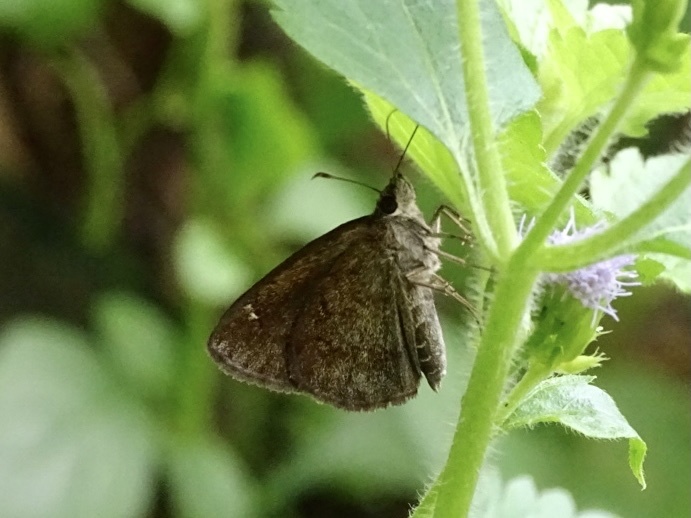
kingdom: Animalia
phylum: Arthropoda
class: Insecta
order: Lepidoptera
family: Hesperiidae
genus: Astictopterus
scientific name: Astictopterus jama
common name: Forest hopper
